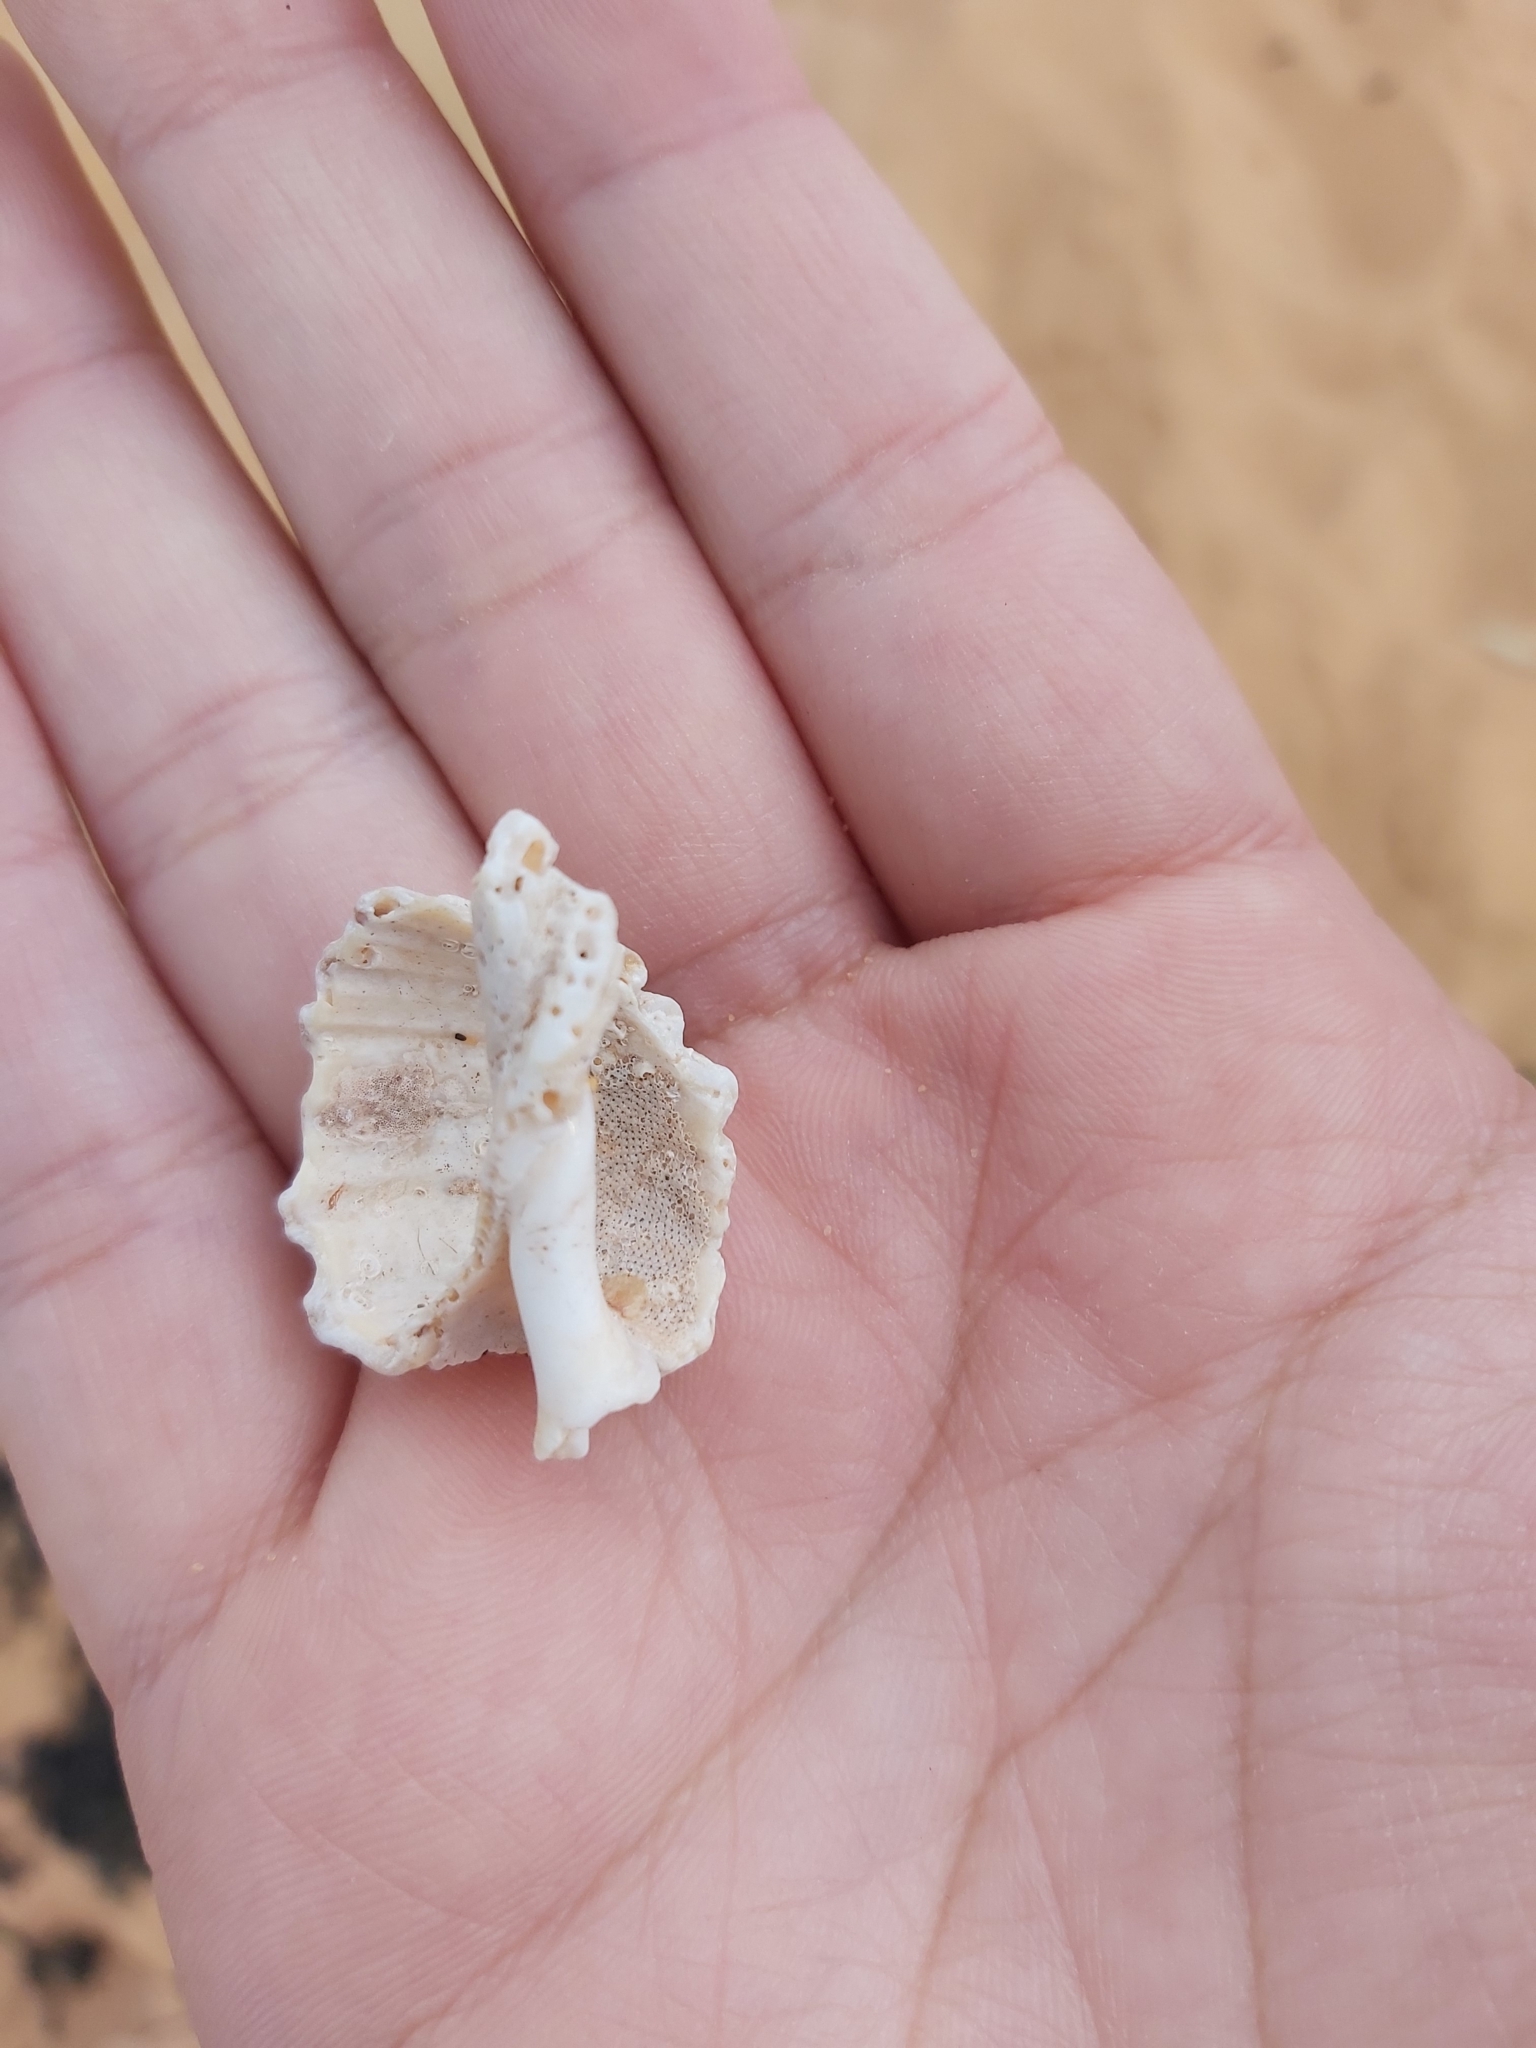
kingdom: Animalia
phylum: Mollusca
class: Gastropoda
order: Neogastropoda
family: Muricidae
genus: Dicathais
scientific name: Dicathais orbita
